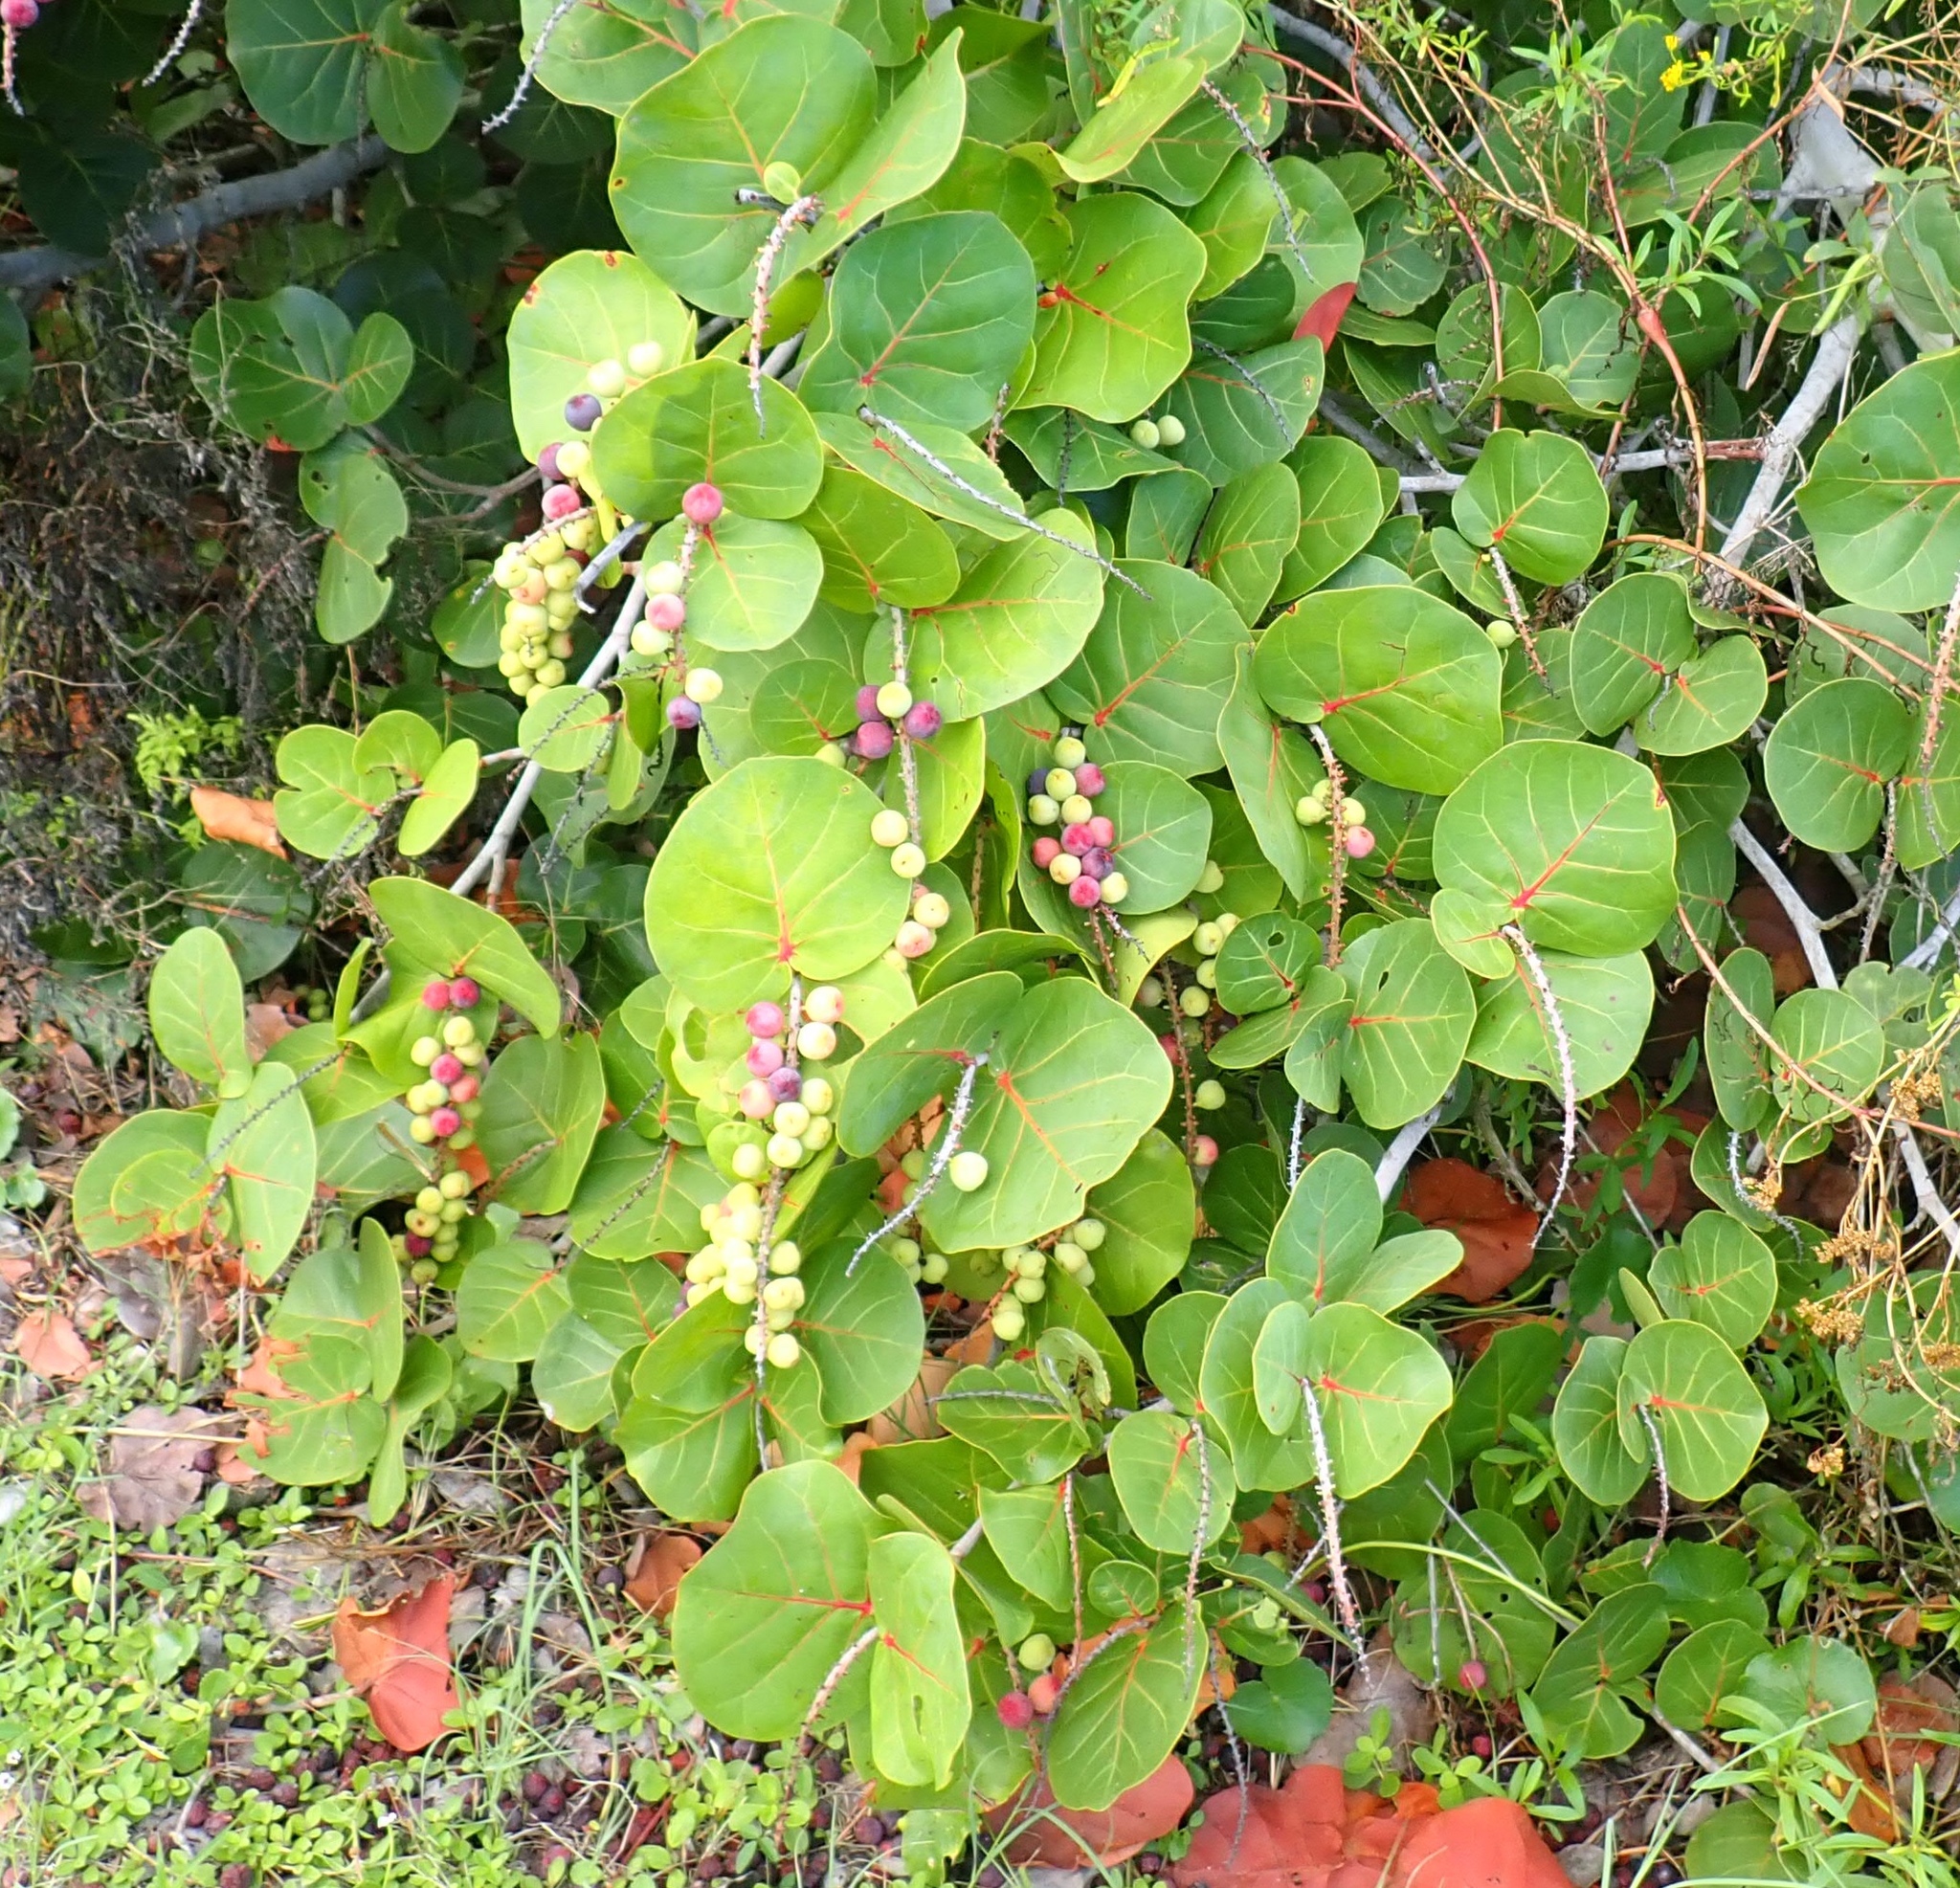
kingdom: Plantae
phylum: Tracheophyta
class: Magnoliopsida
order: Caryophyllales
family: Polygonaceae
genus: Coccoloba
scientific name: Coccoloba uvifera
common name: Seagrape
